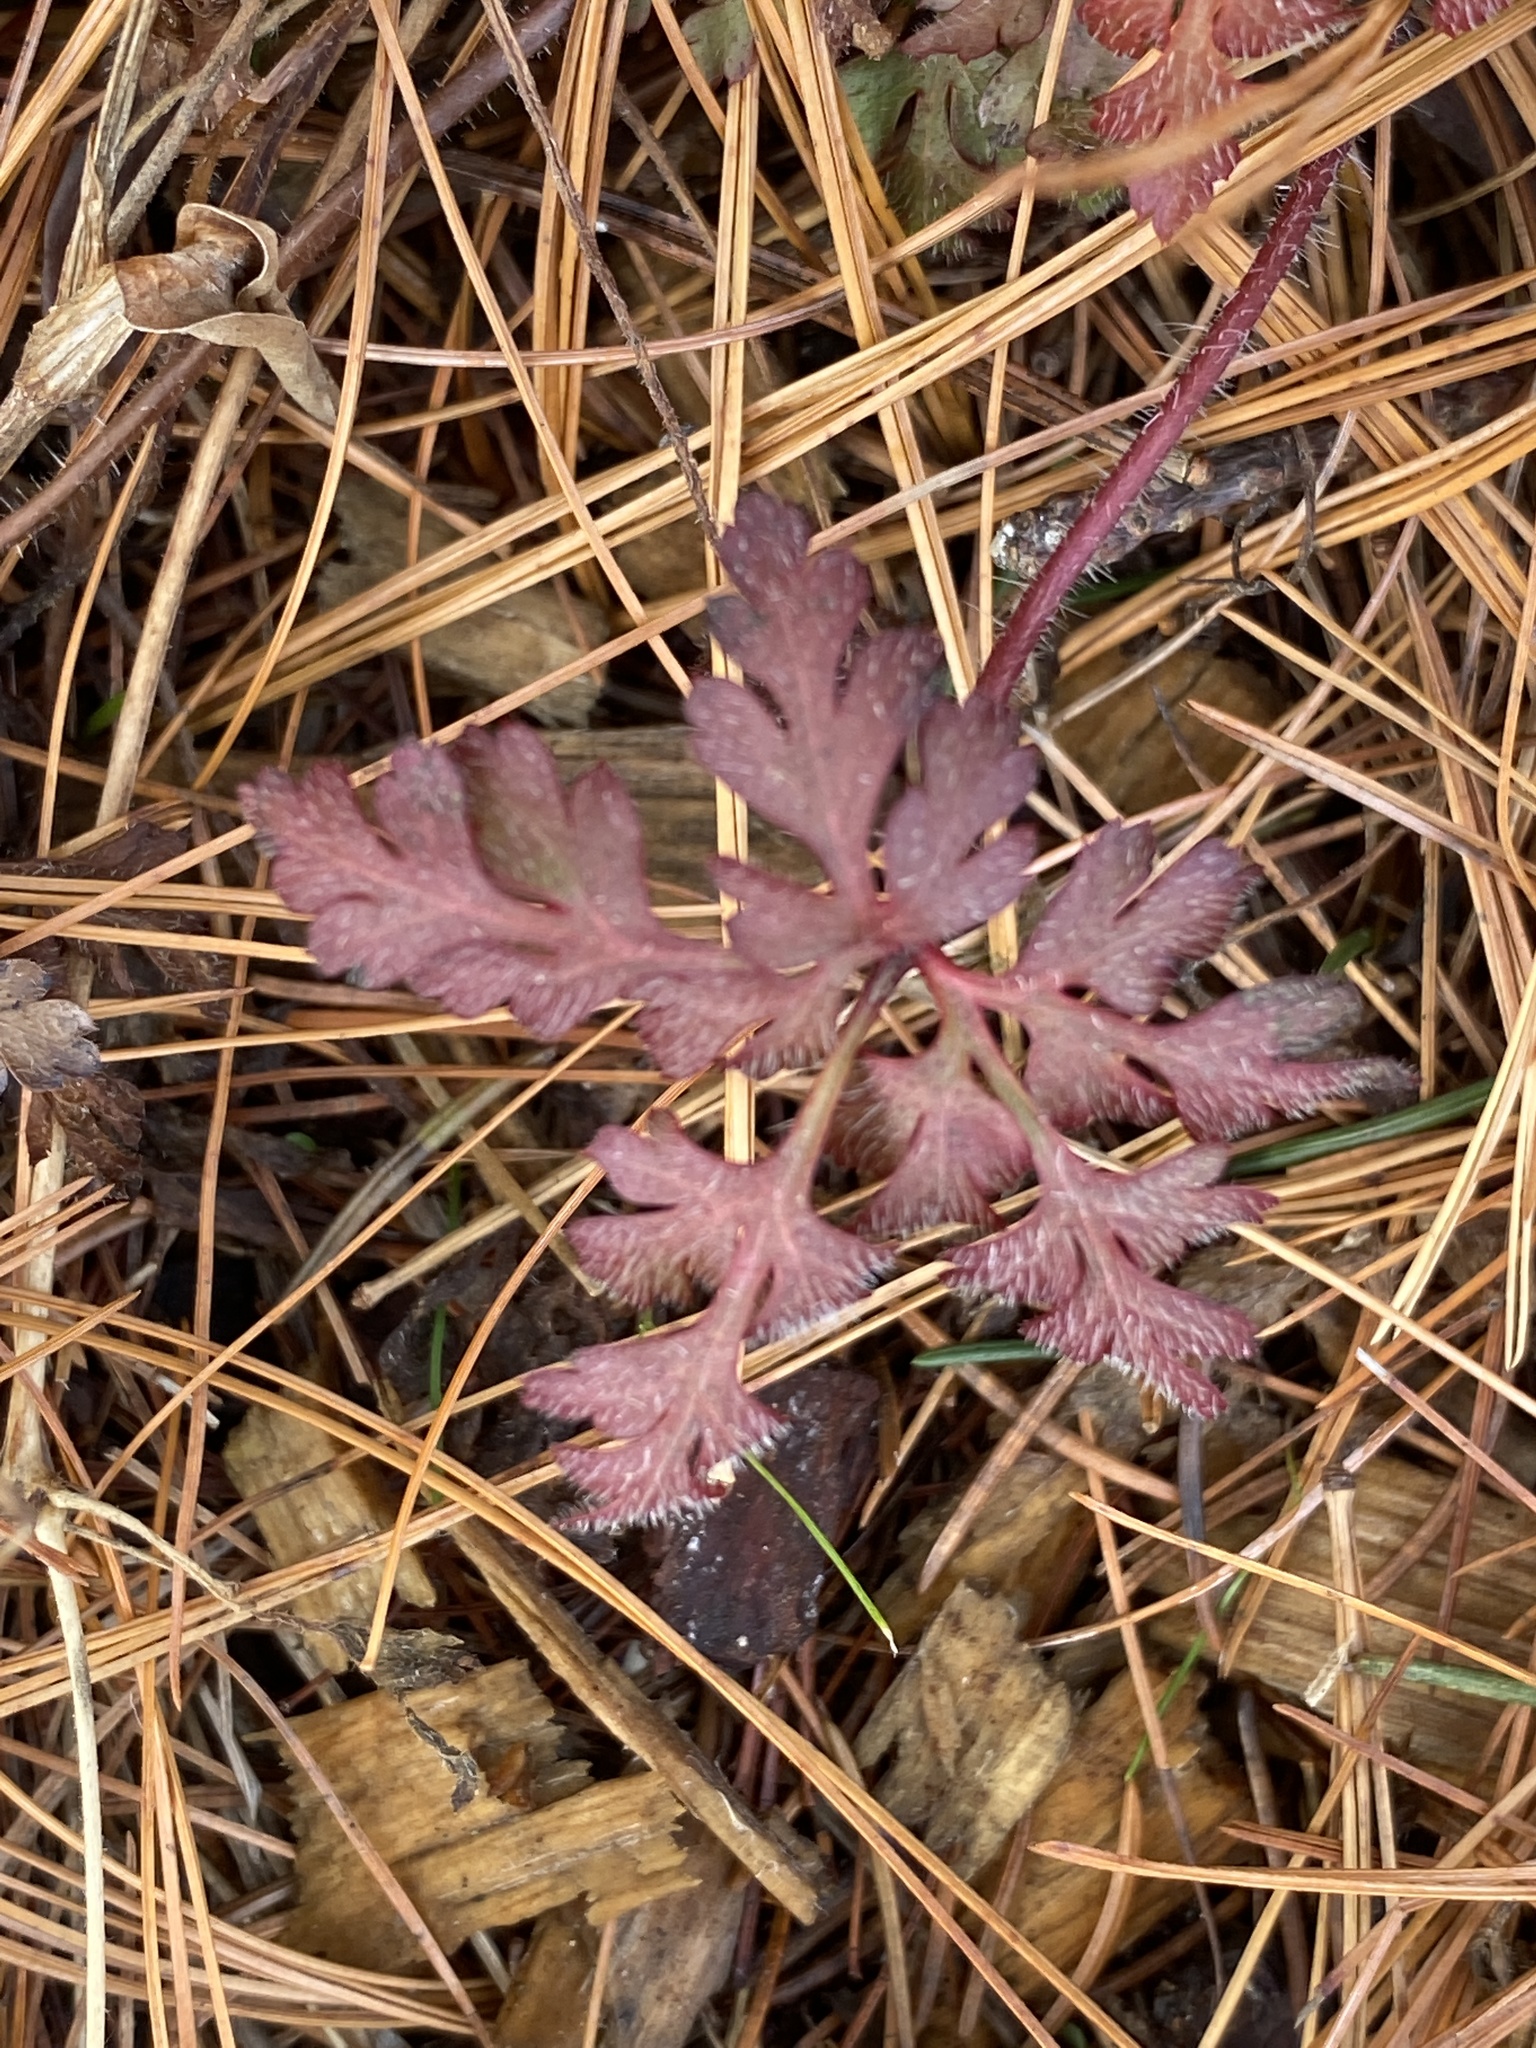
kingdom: Plantae
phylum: Tracheophyta
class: Magnoliopsida
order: Geraniales
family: Geraniaceae
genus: Geranium
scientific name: Geranium robertianum
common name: Herb-robert
